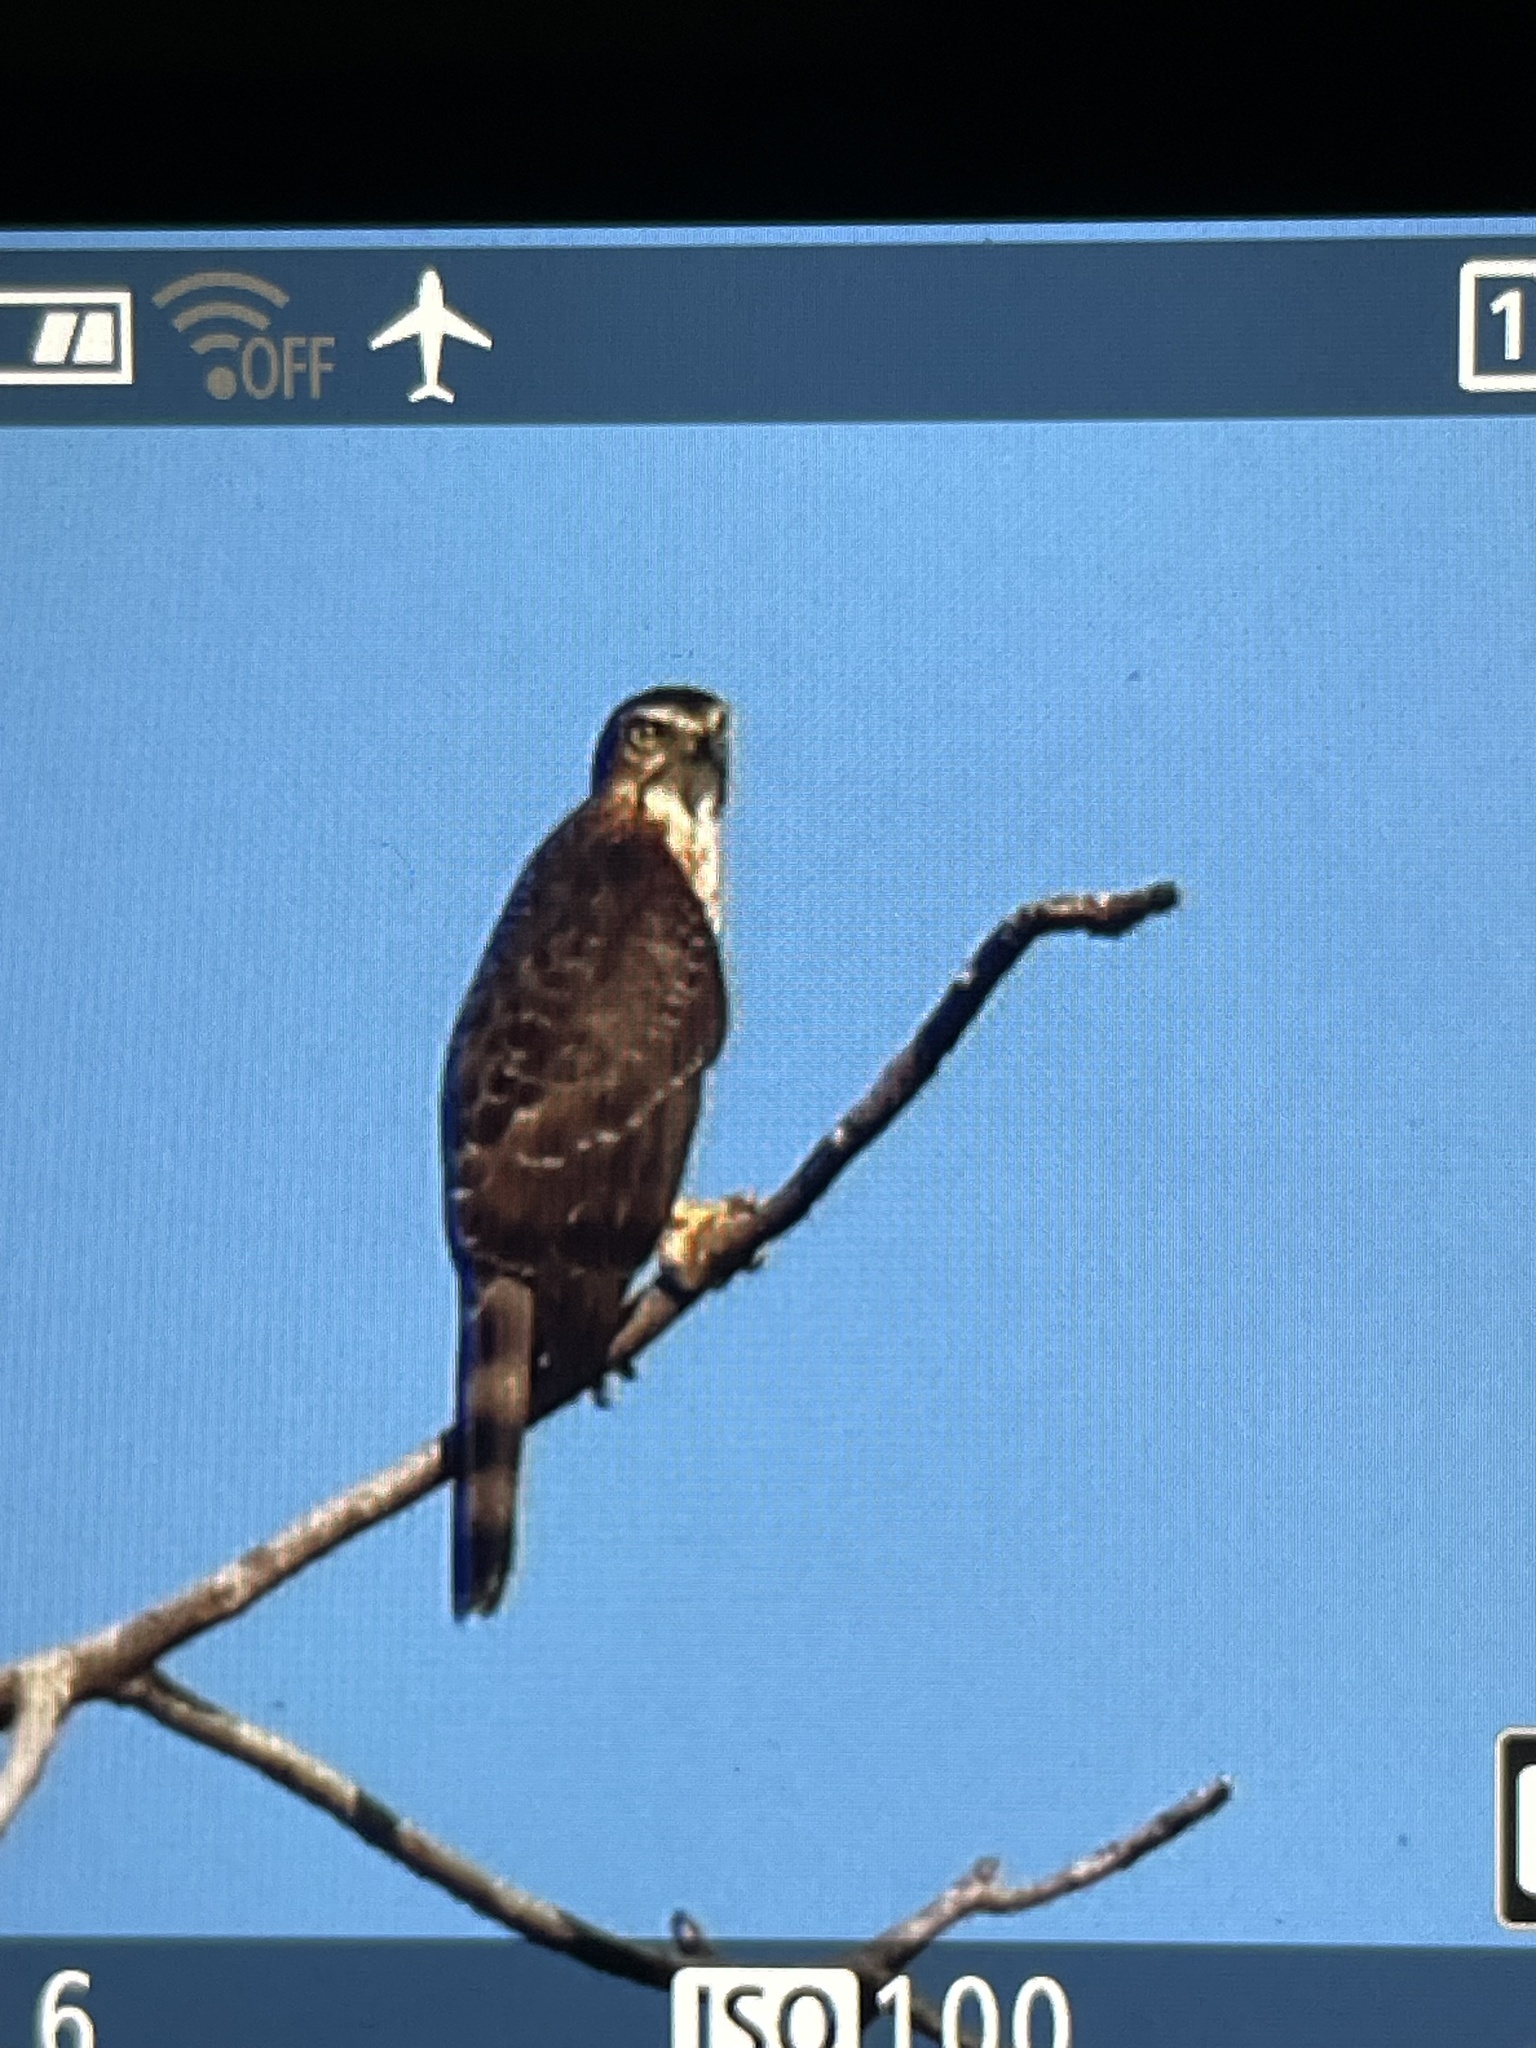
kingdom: Animalia
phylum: Chordata
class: Aves
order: Accipitriformes
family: Accipitridae
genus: Accipiter
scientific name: Accipiter trivirgatus
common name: Crested goshawk
